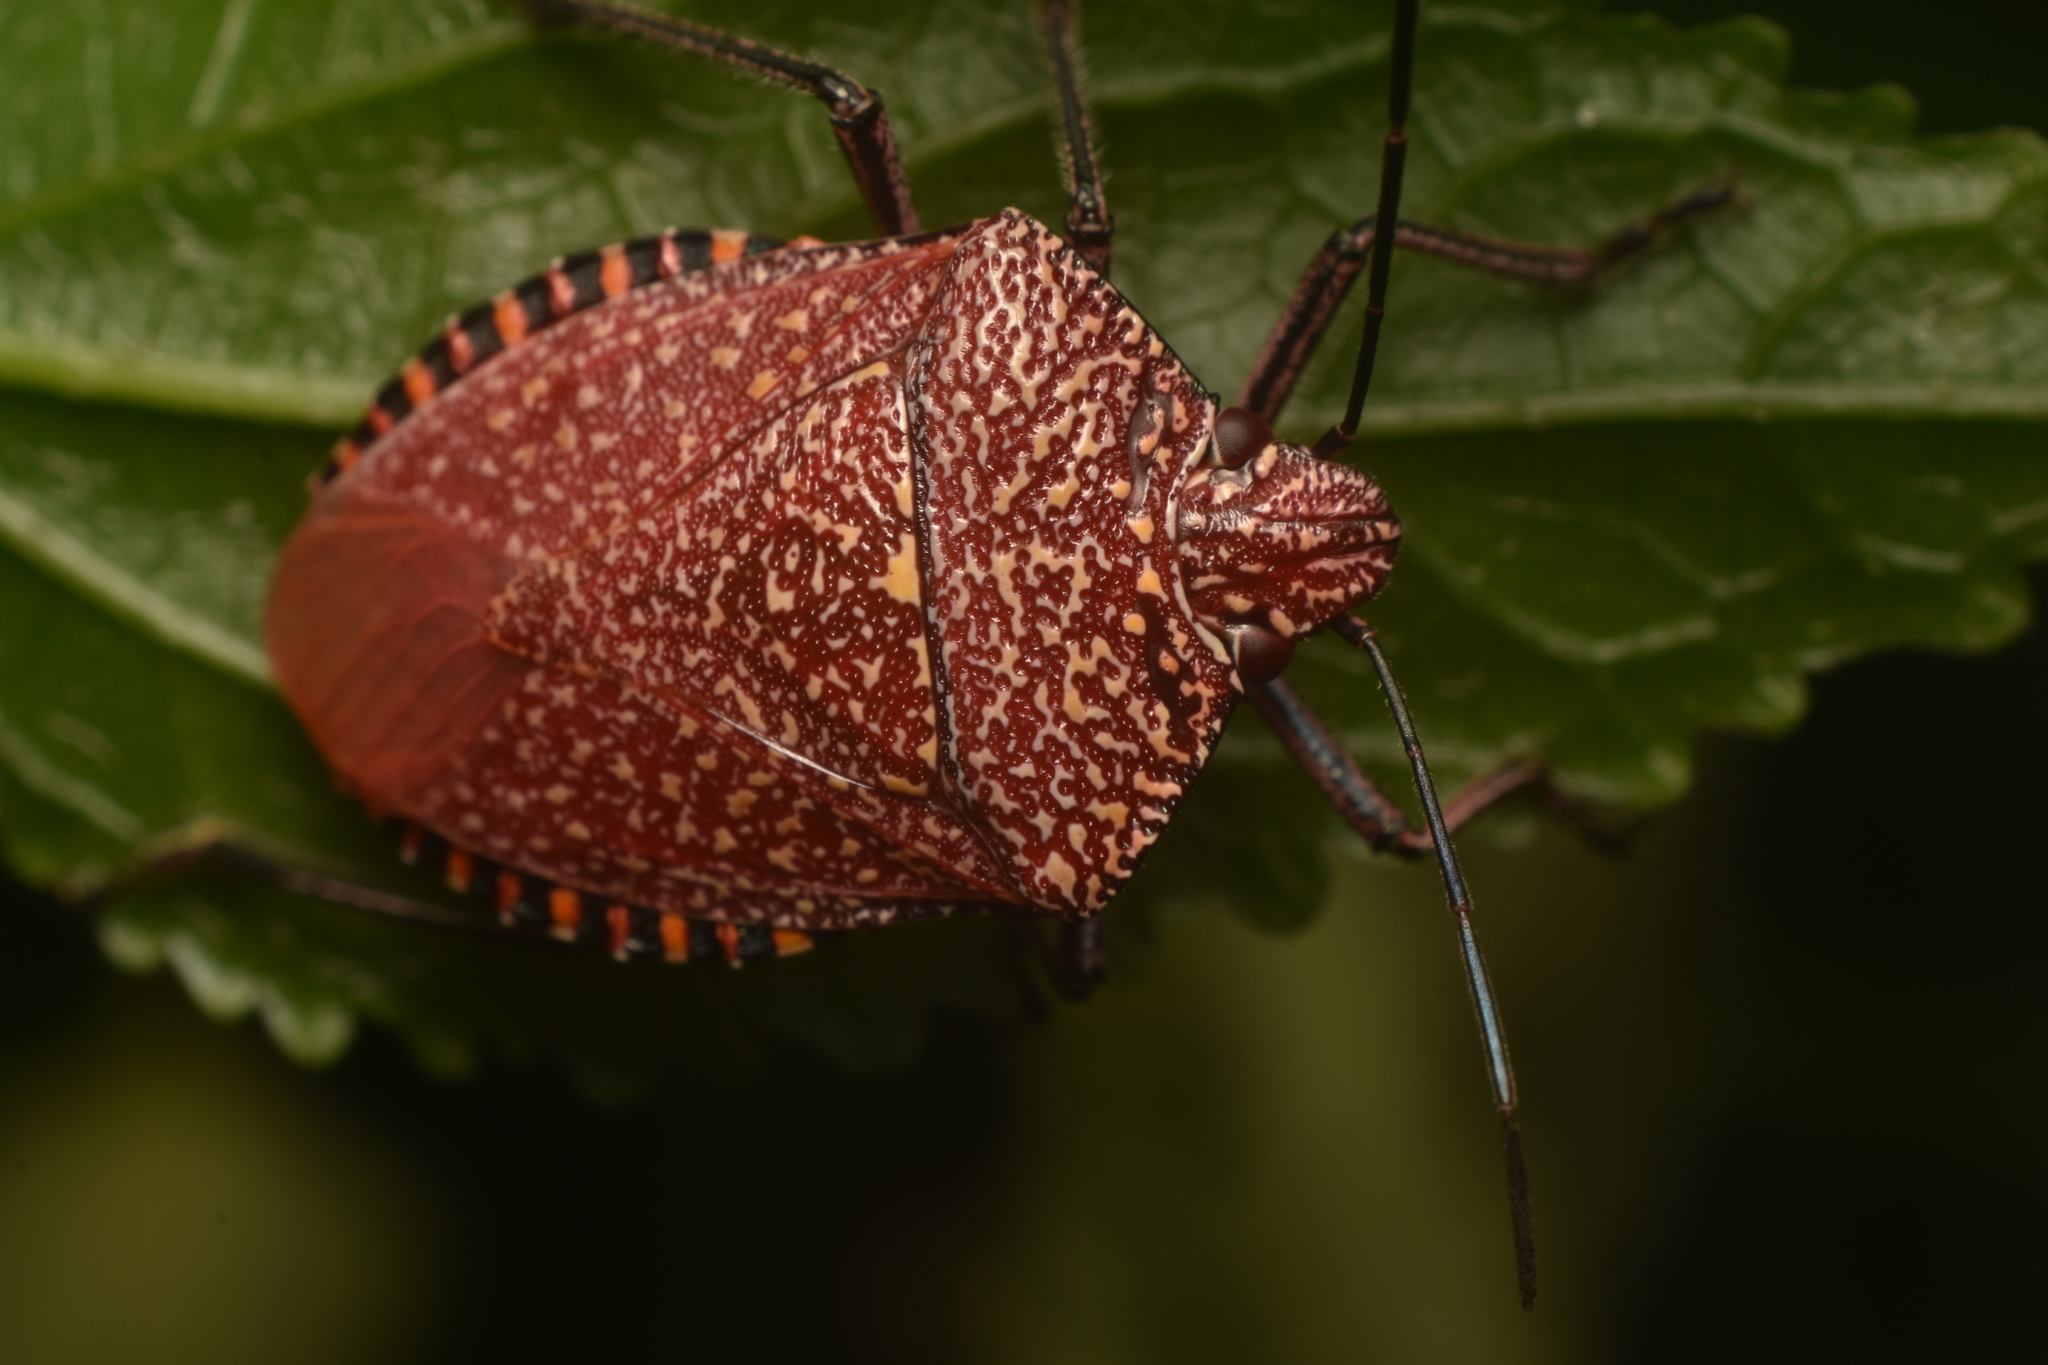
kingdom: Animalia
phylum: Arthropoda
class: Insecta
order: Hemiptera
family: Pentatomidae
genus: Pellaea
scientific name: Pellaea stictica
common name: Stink bug
